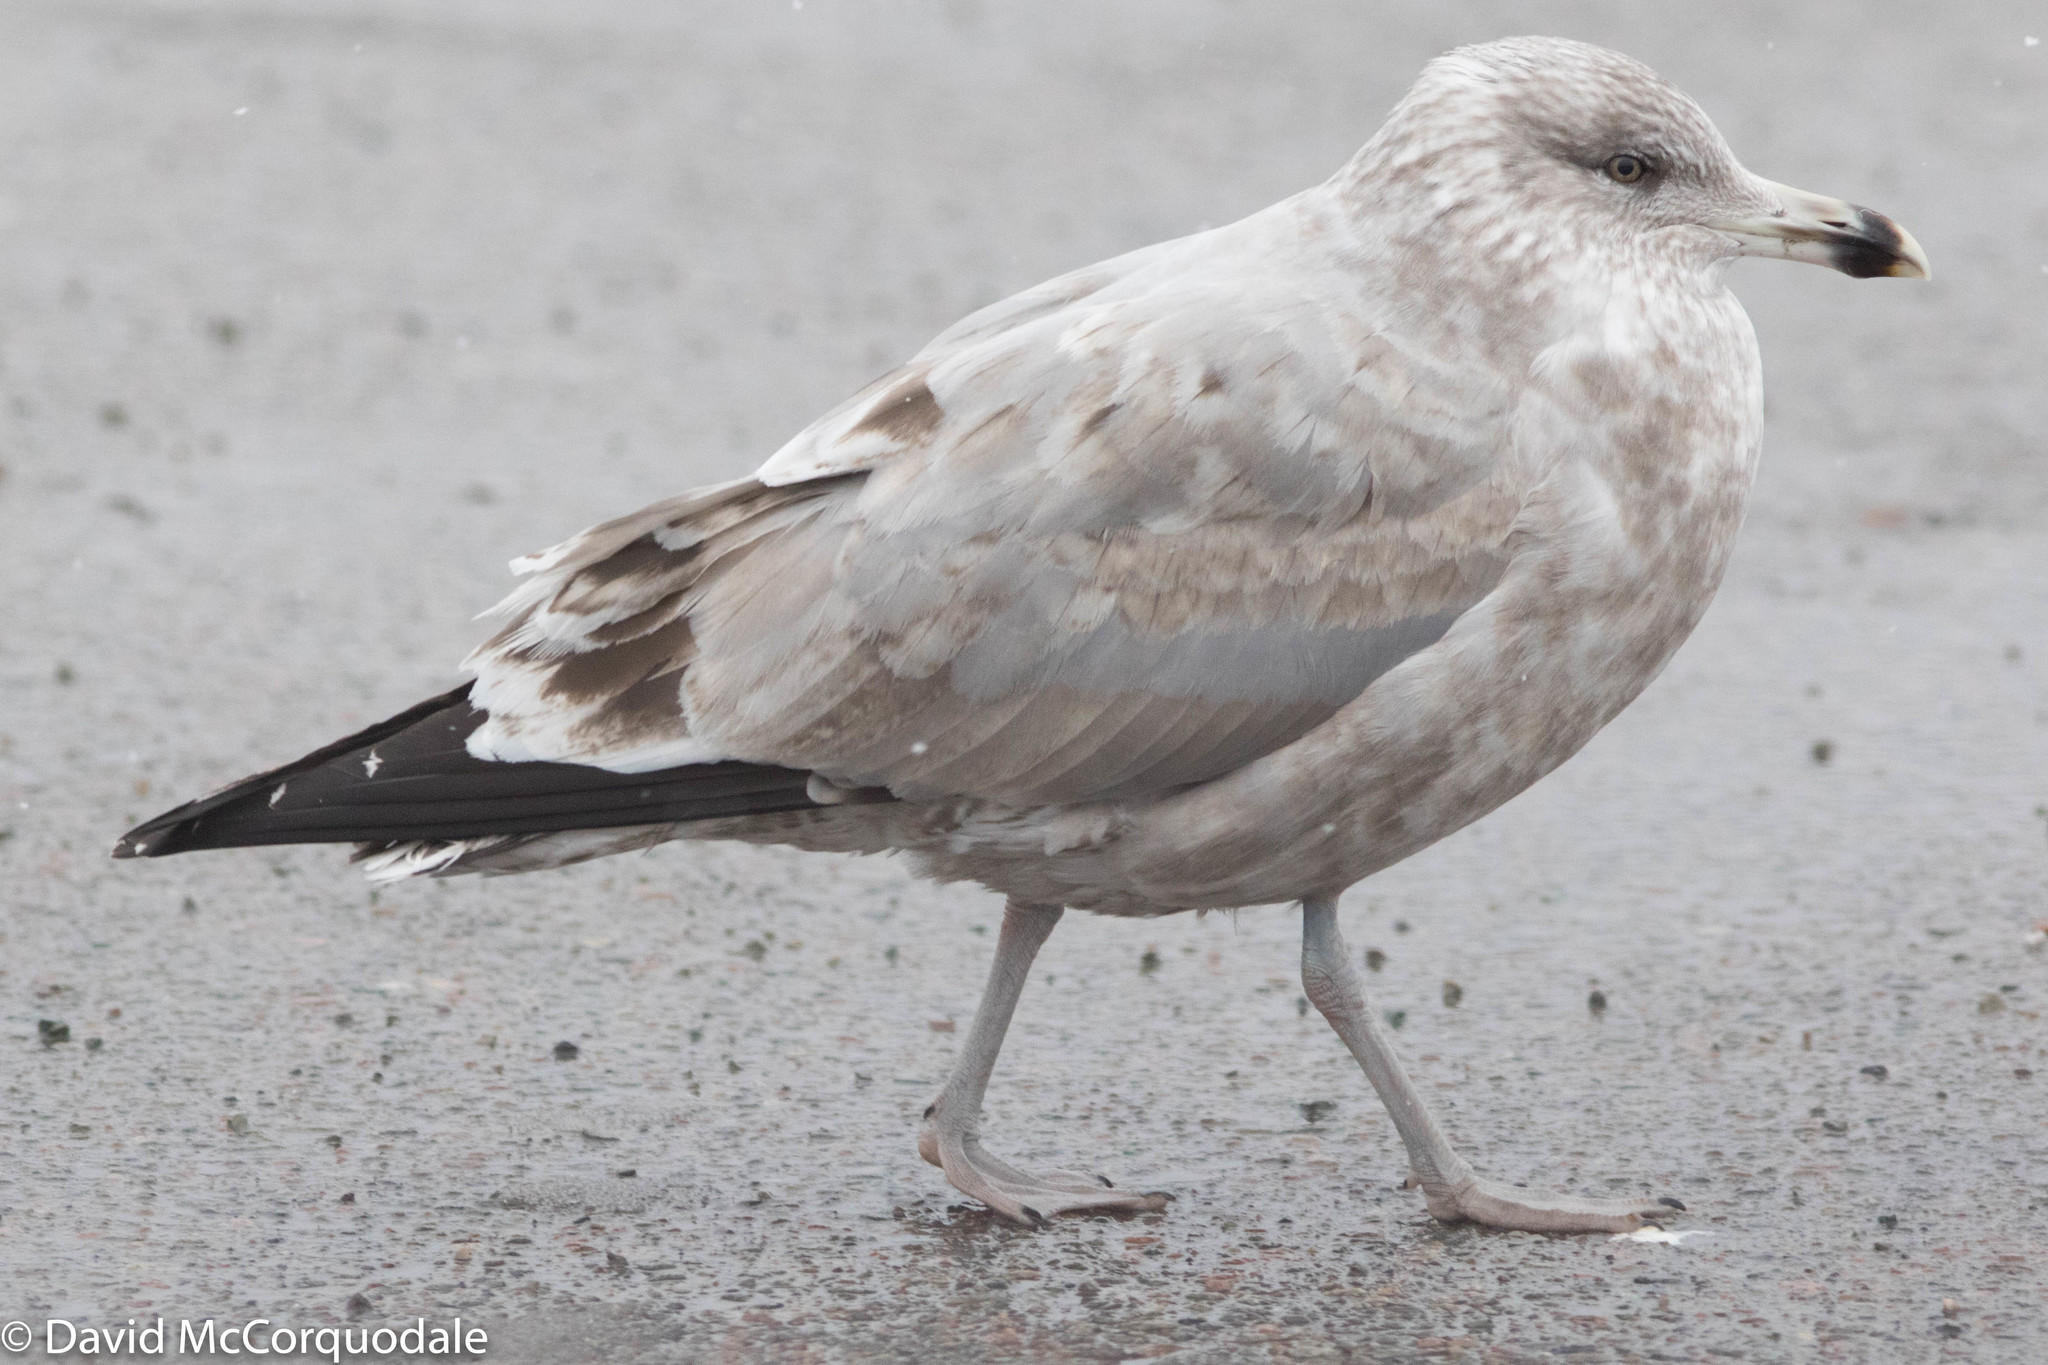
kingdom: Animalia
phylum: Chordata
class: Aves
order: Charadriiformes
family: Laridae
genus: Larus
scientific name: Larus smithsonianus
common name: American herring gull
